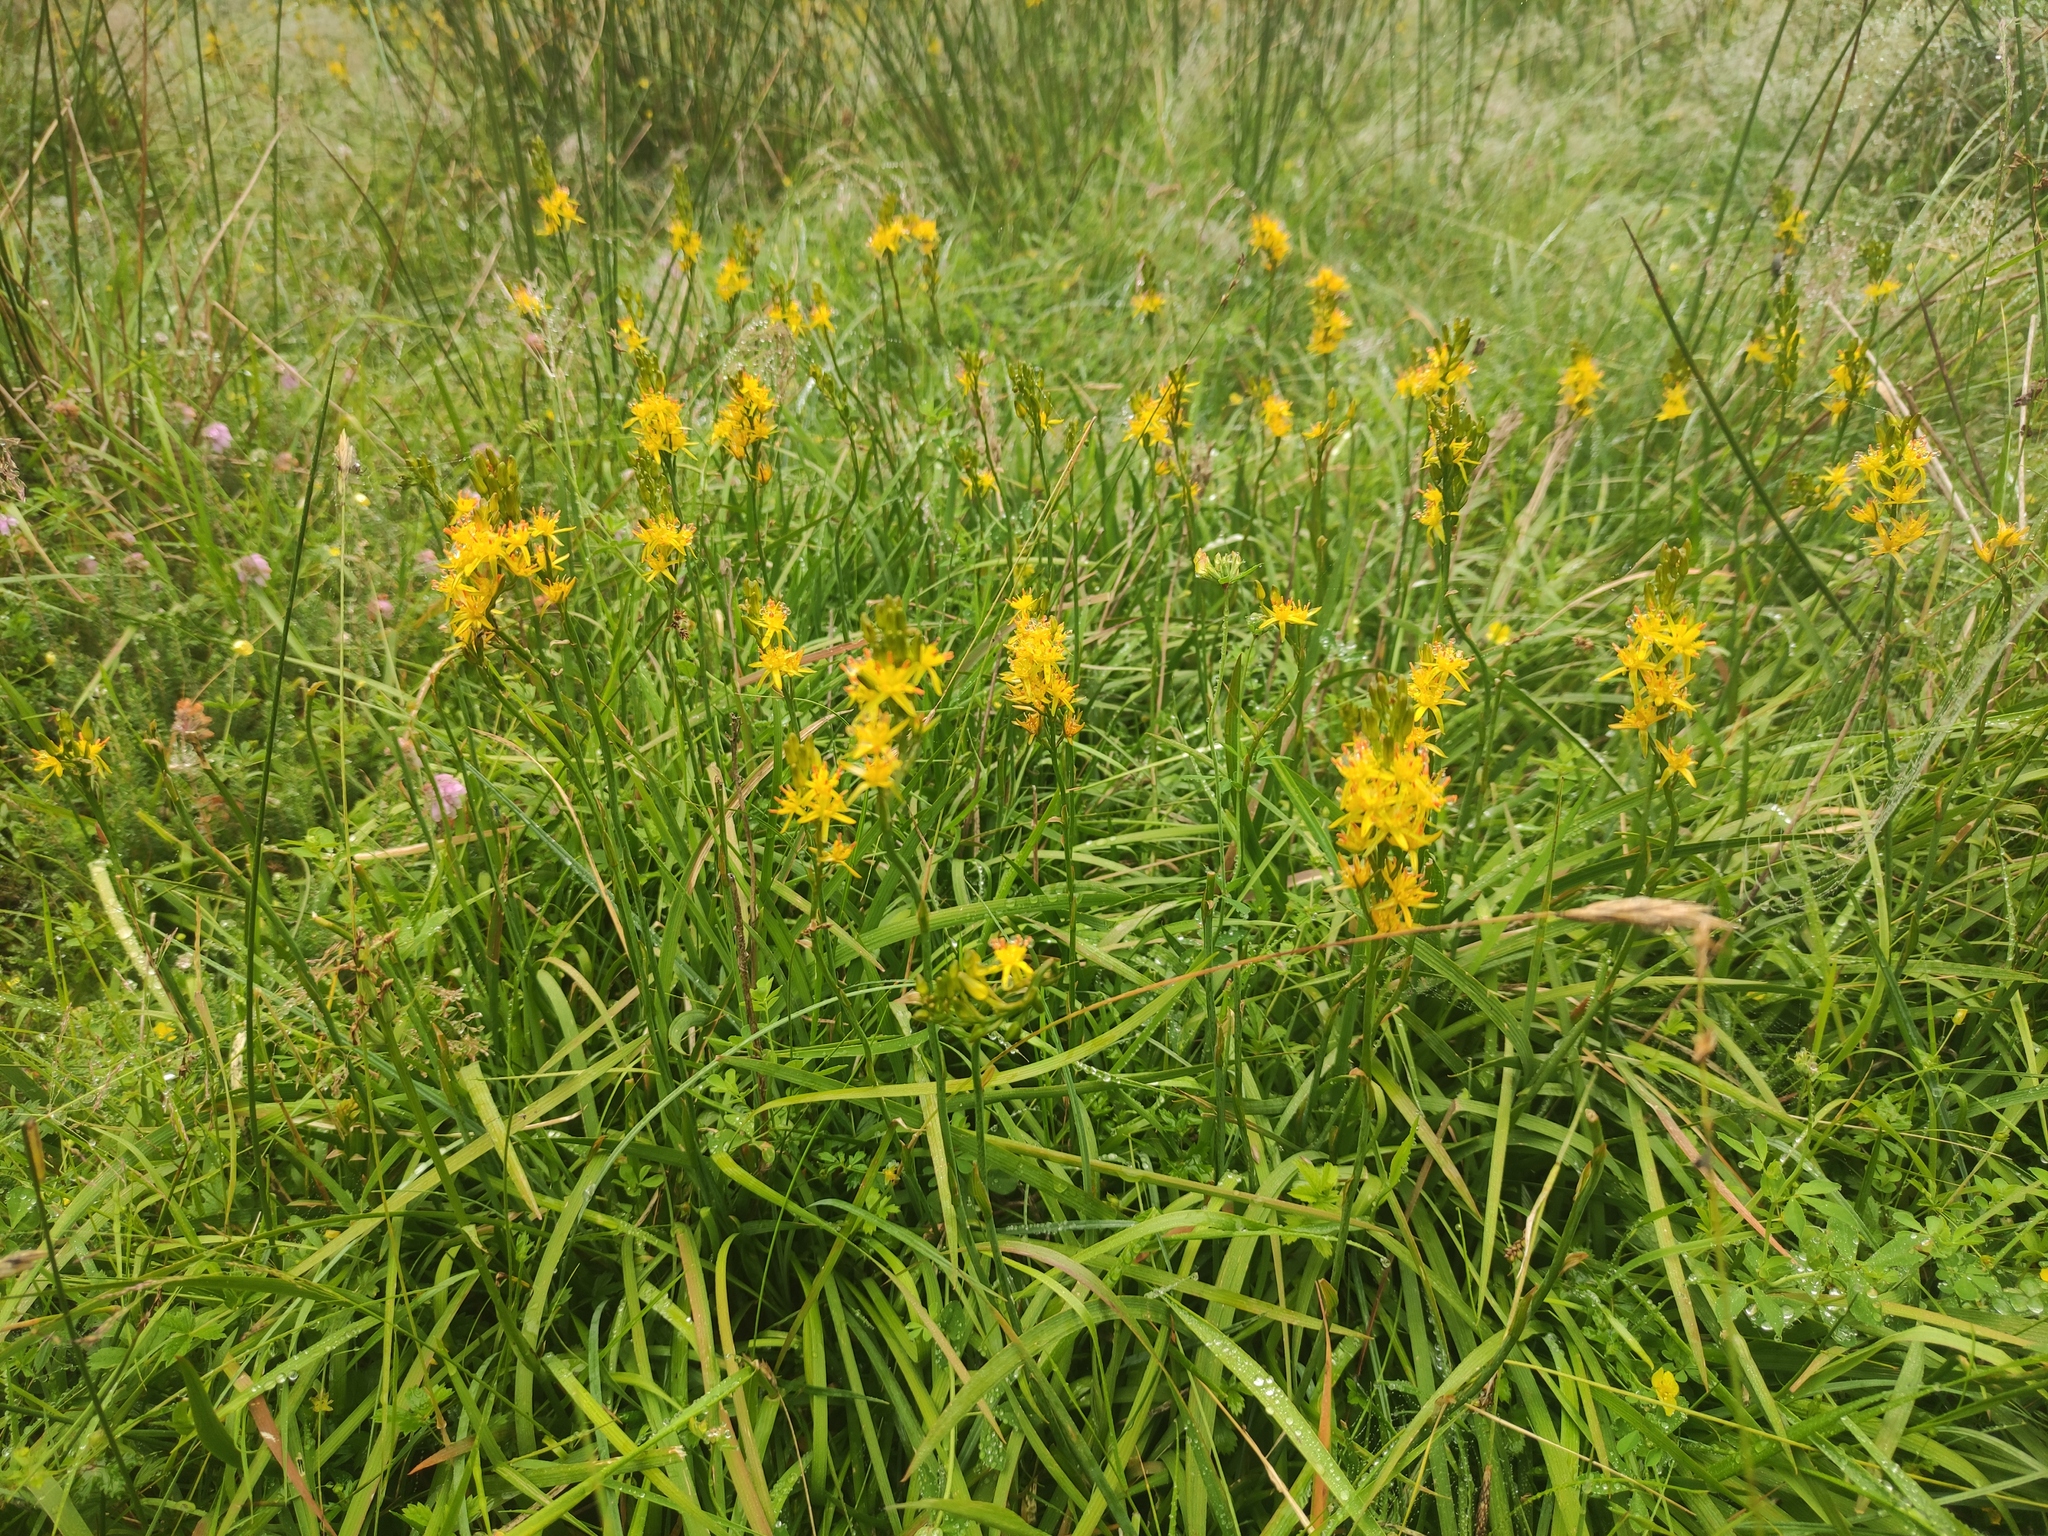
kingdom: Plantae
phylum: Tracheophyta
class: Liliopsida
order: Dioscoreales
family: Nartheciaceae
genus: Narthecium
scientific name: Narthecium ossifragum
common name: Bog asphodel
